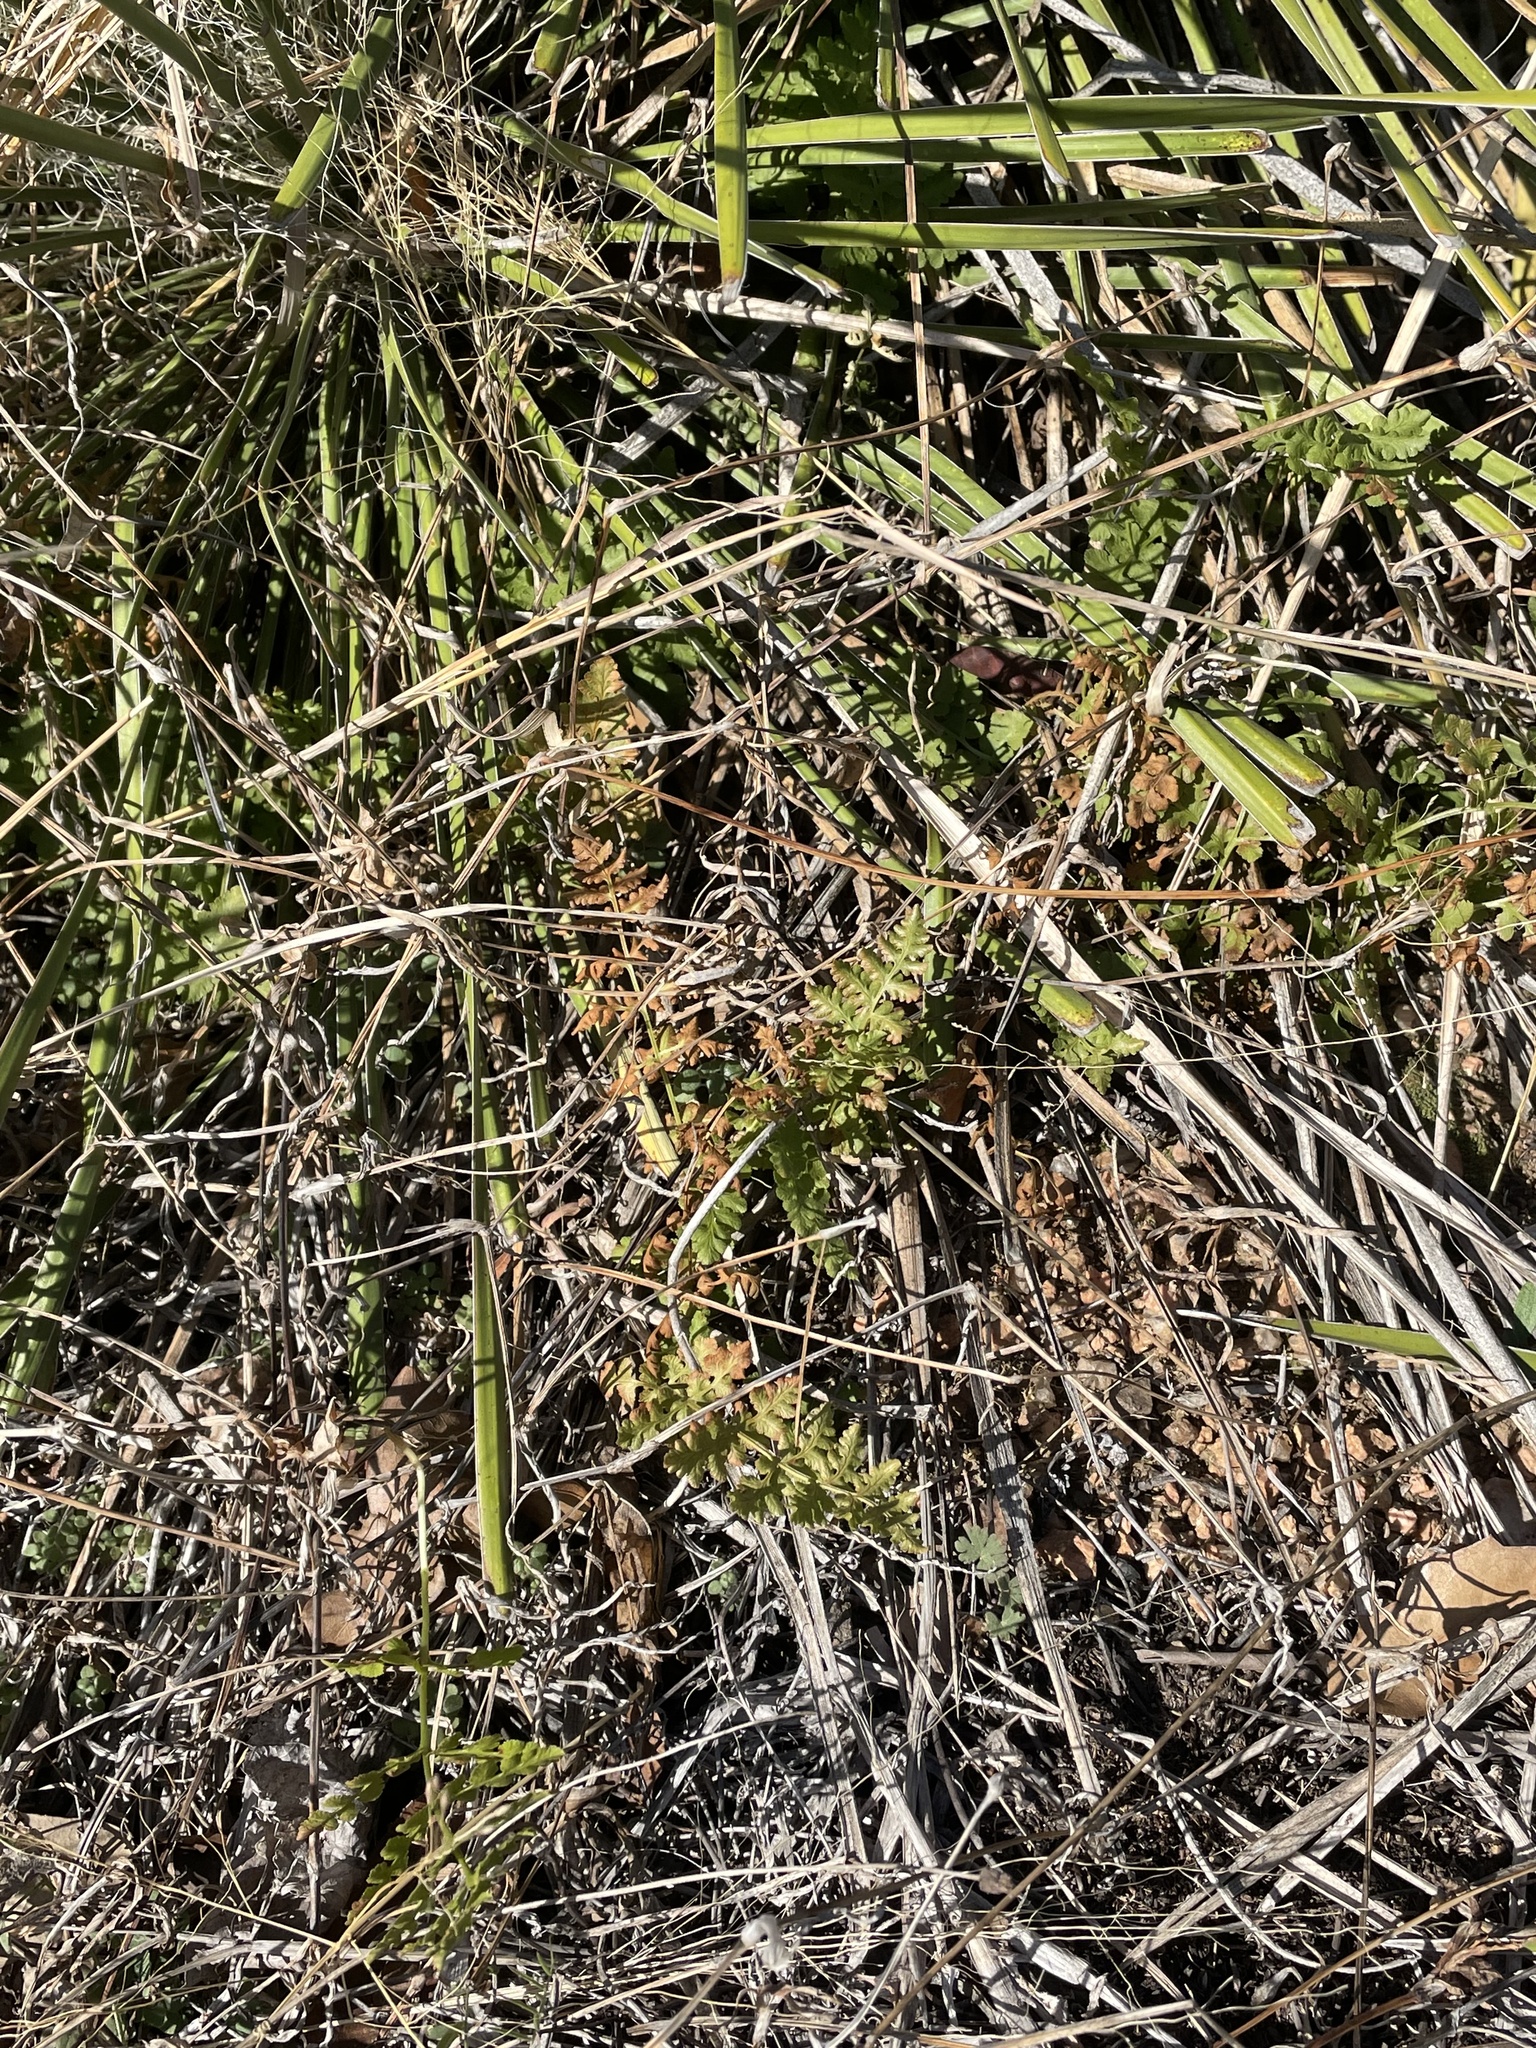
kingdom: Plantae
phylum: Tracheophyta
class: Polypodiopsida
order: Polypodiales
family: Woodsiaceae
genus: Physematium
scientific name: Physematium obtusum
